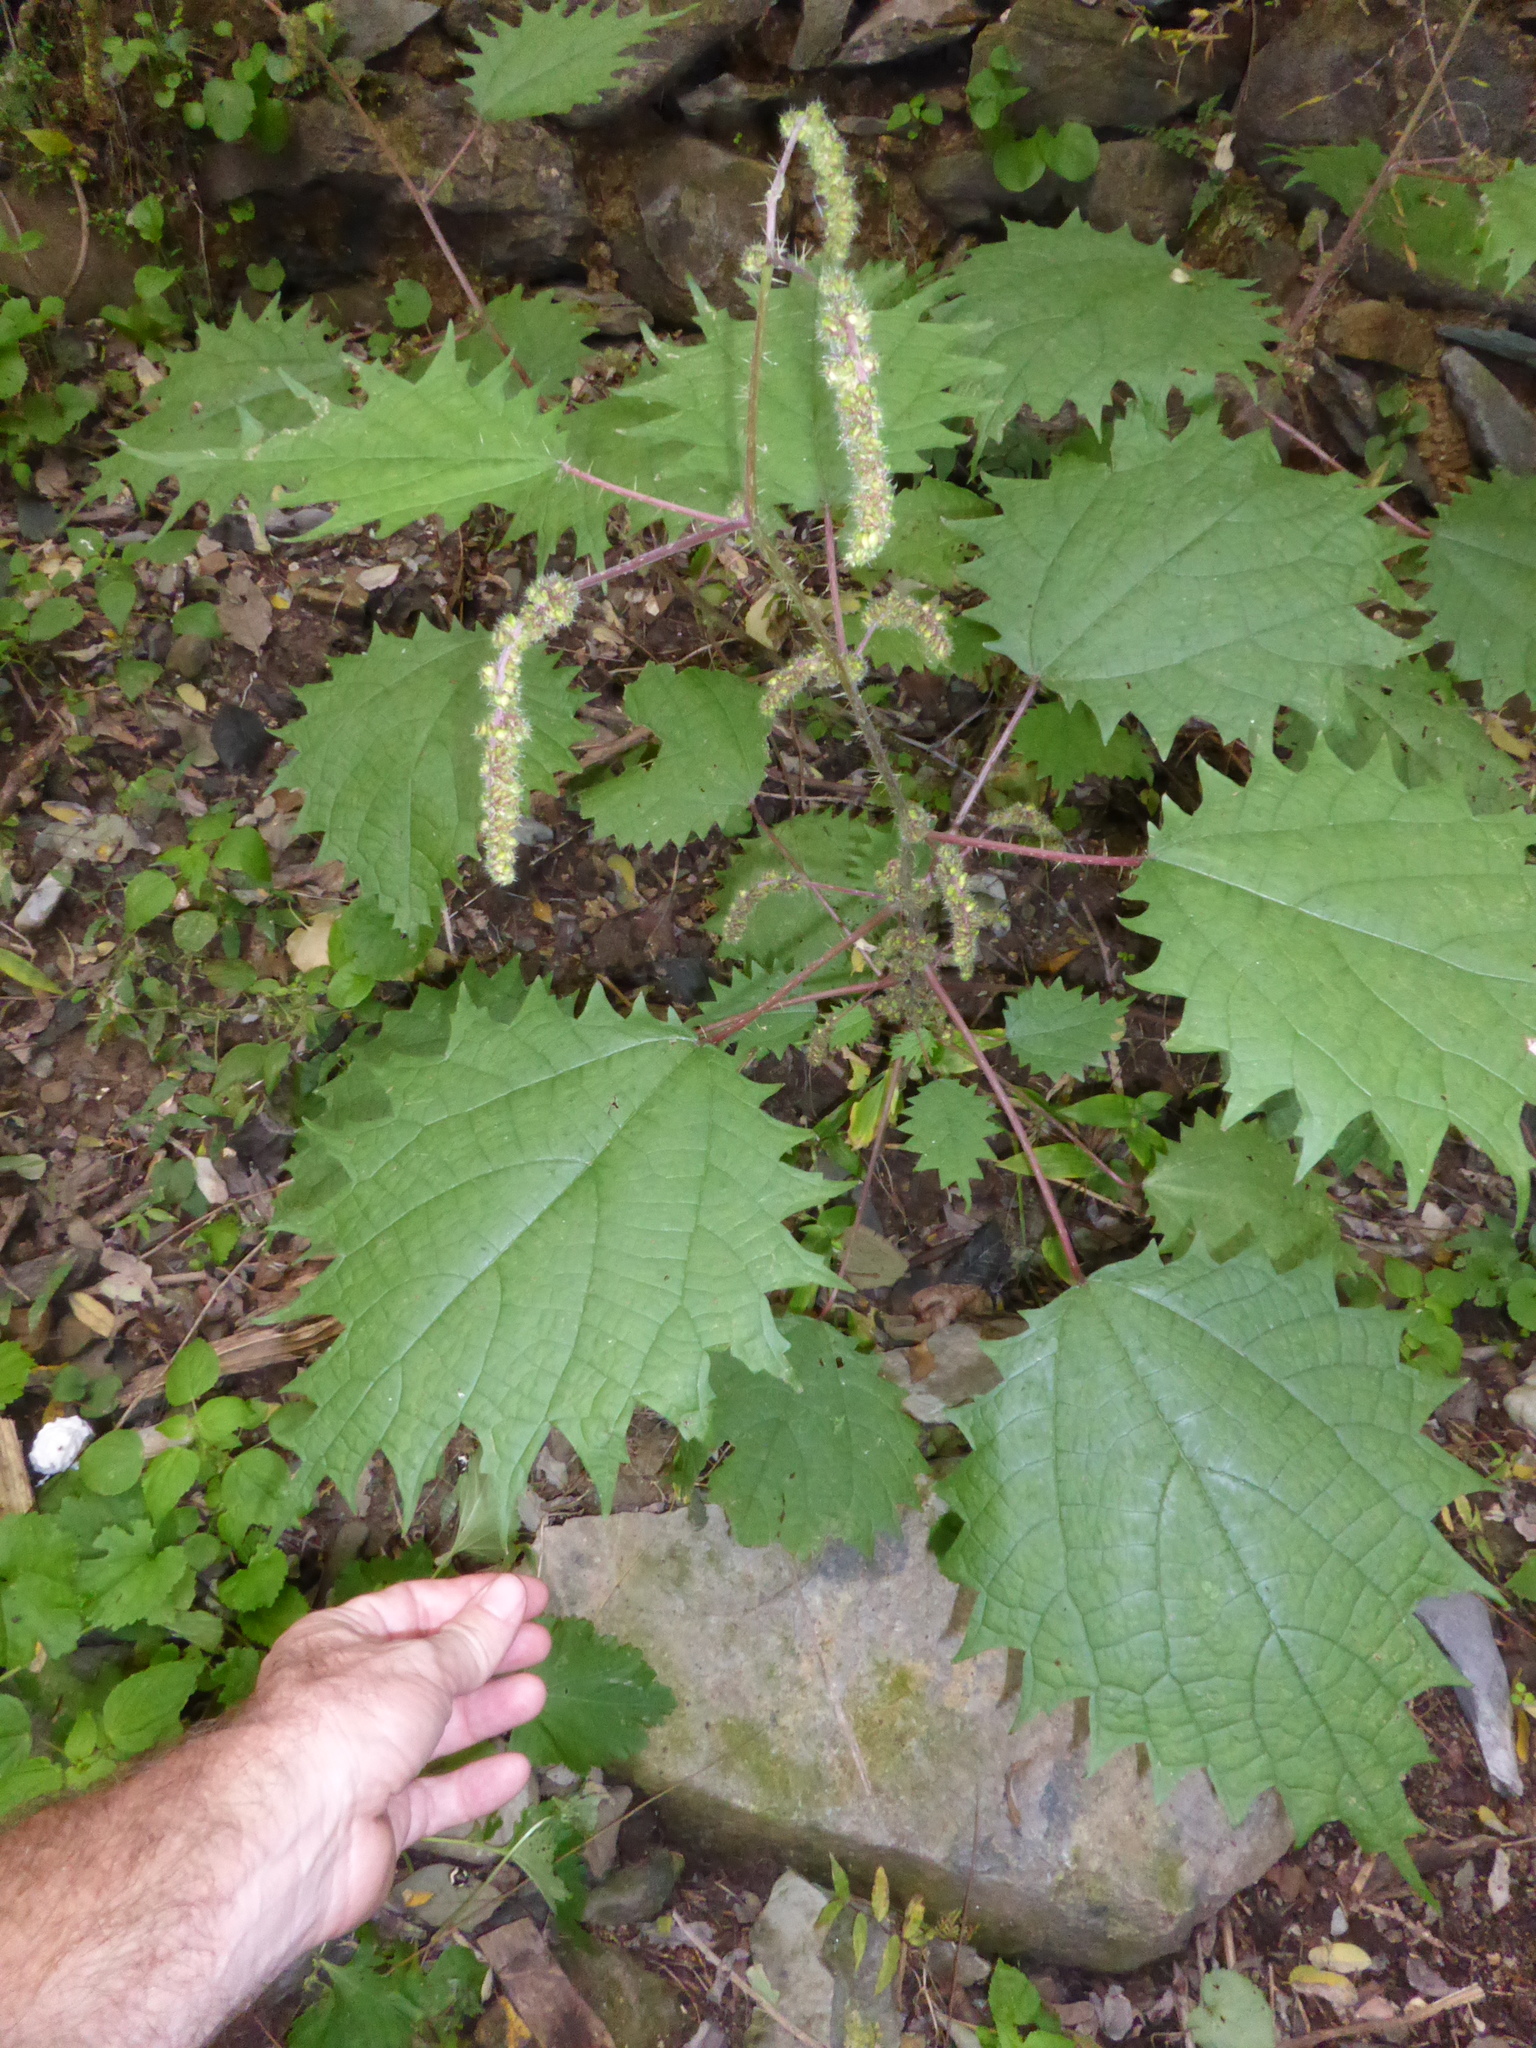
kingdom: Plantae
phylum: Tracheophyta
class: Magnoliopsida
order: Rosales
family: Urticaceae
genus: Girardinia
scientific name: Girardinia diversifolia
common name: Himalayan-nettle
